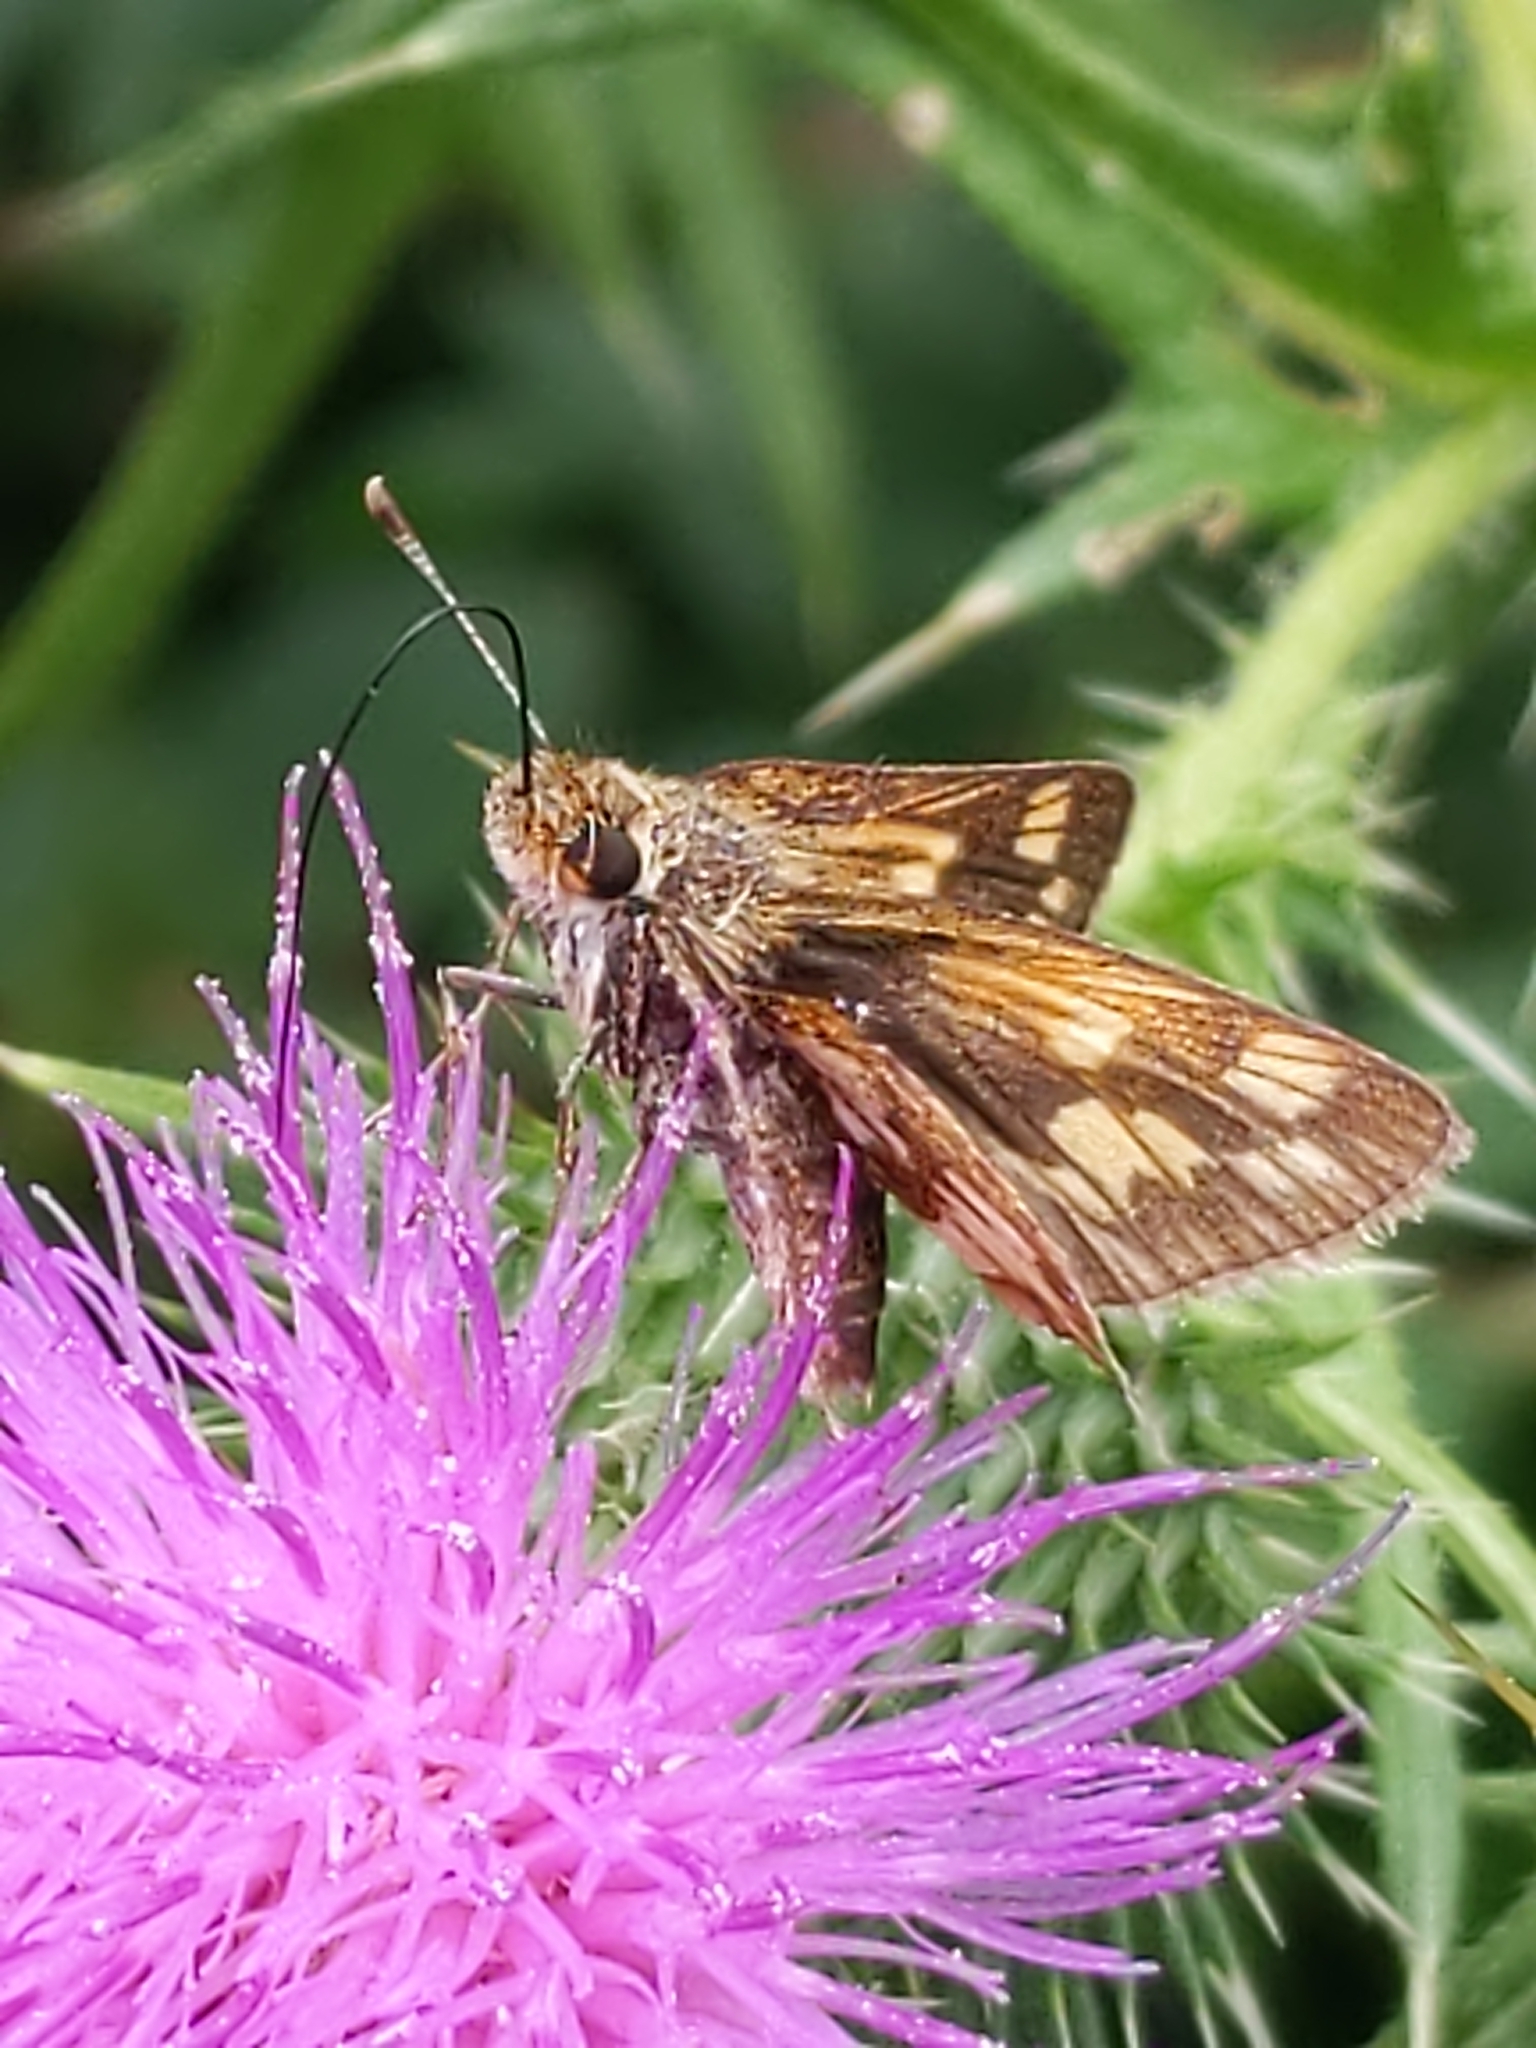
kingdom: Animalia
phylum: Arthropoda
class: Insecta
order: Lepidoptera
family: Hesperiidae
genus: Polites
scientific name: Polites coras
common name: Peck's skipper
